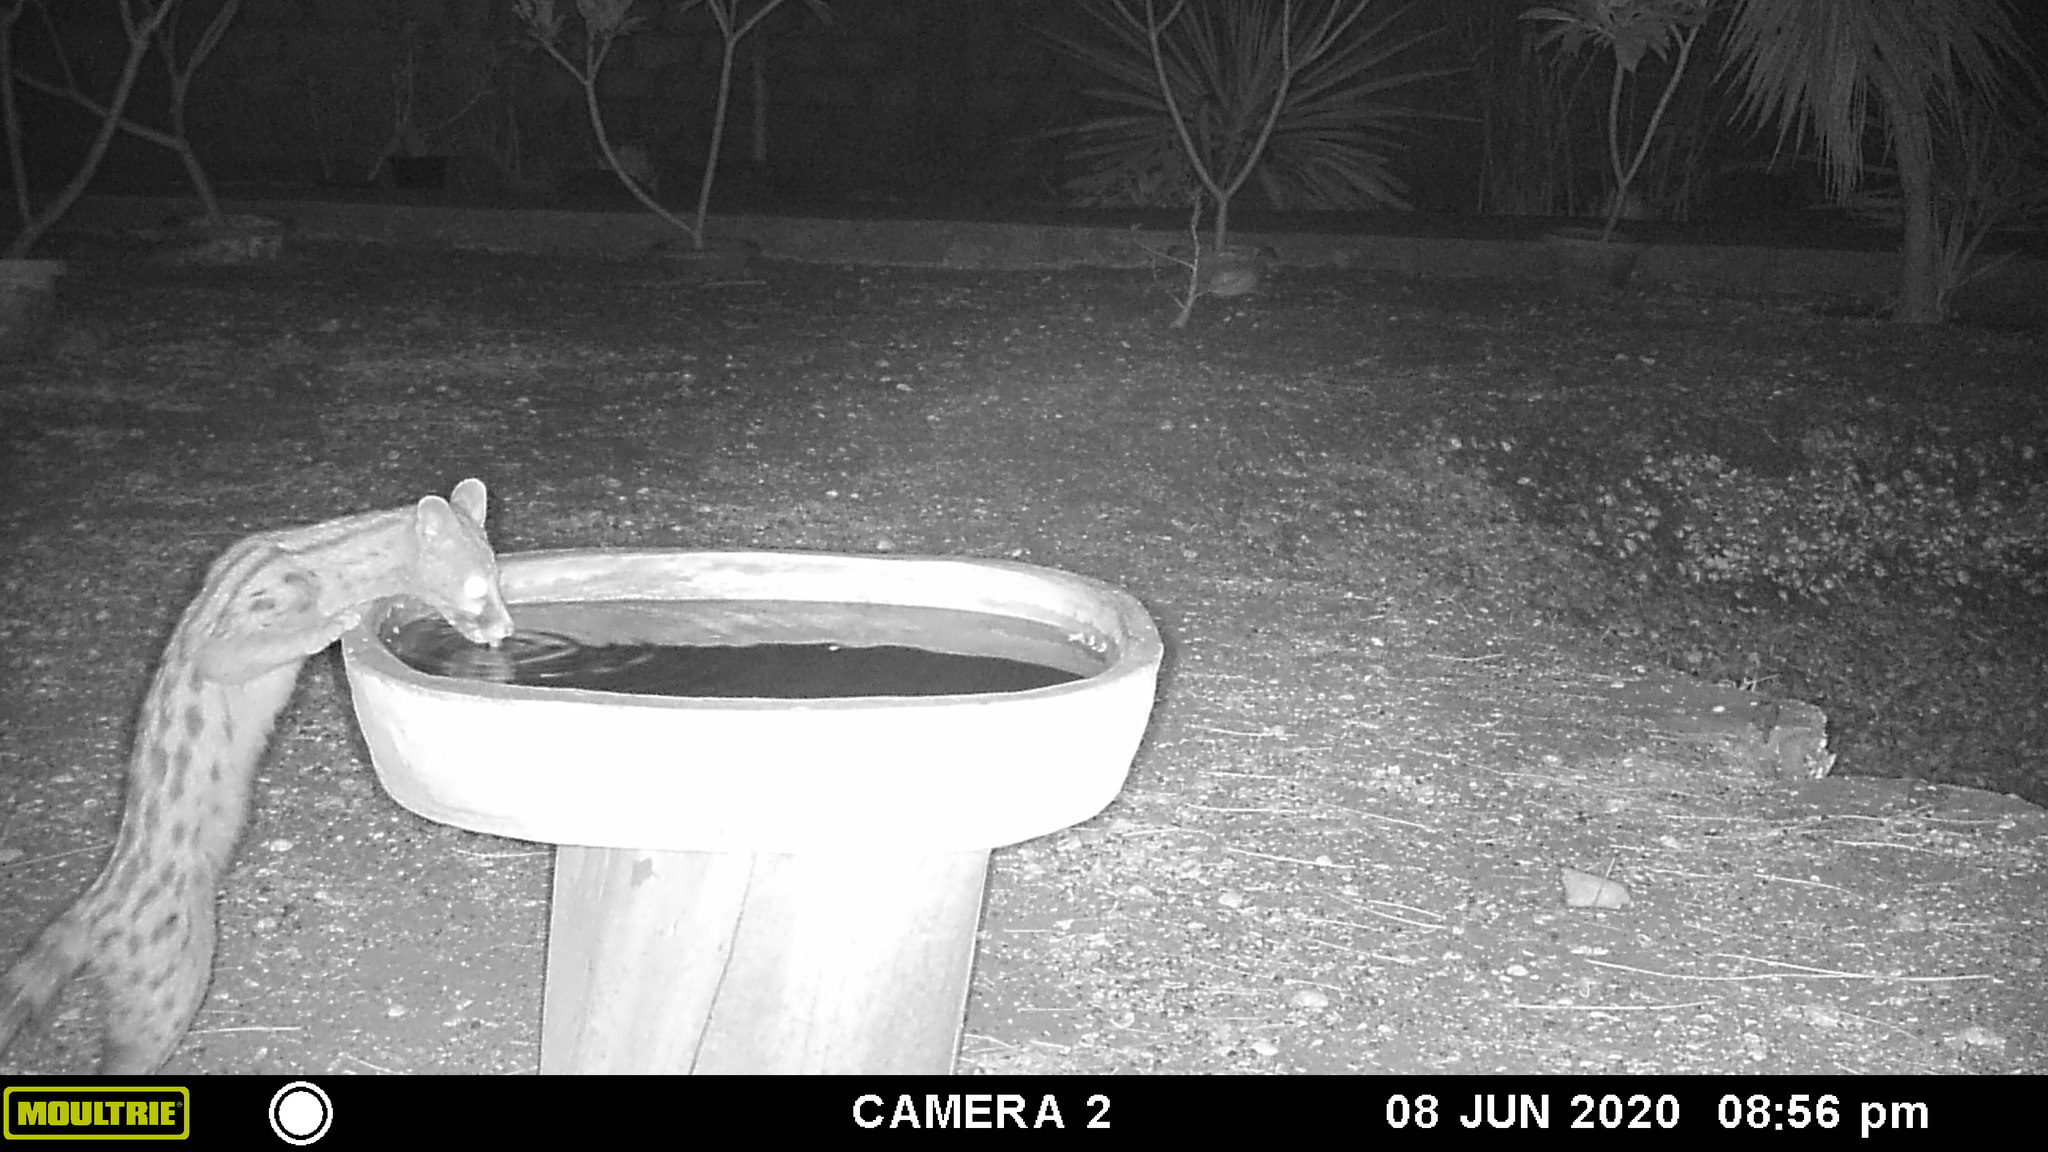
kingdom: Animalia
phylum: Chordata
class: Mammalia
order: Carnivora
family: Viverridae
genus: Genetta
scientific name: Genetta genetta
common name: Common genet
